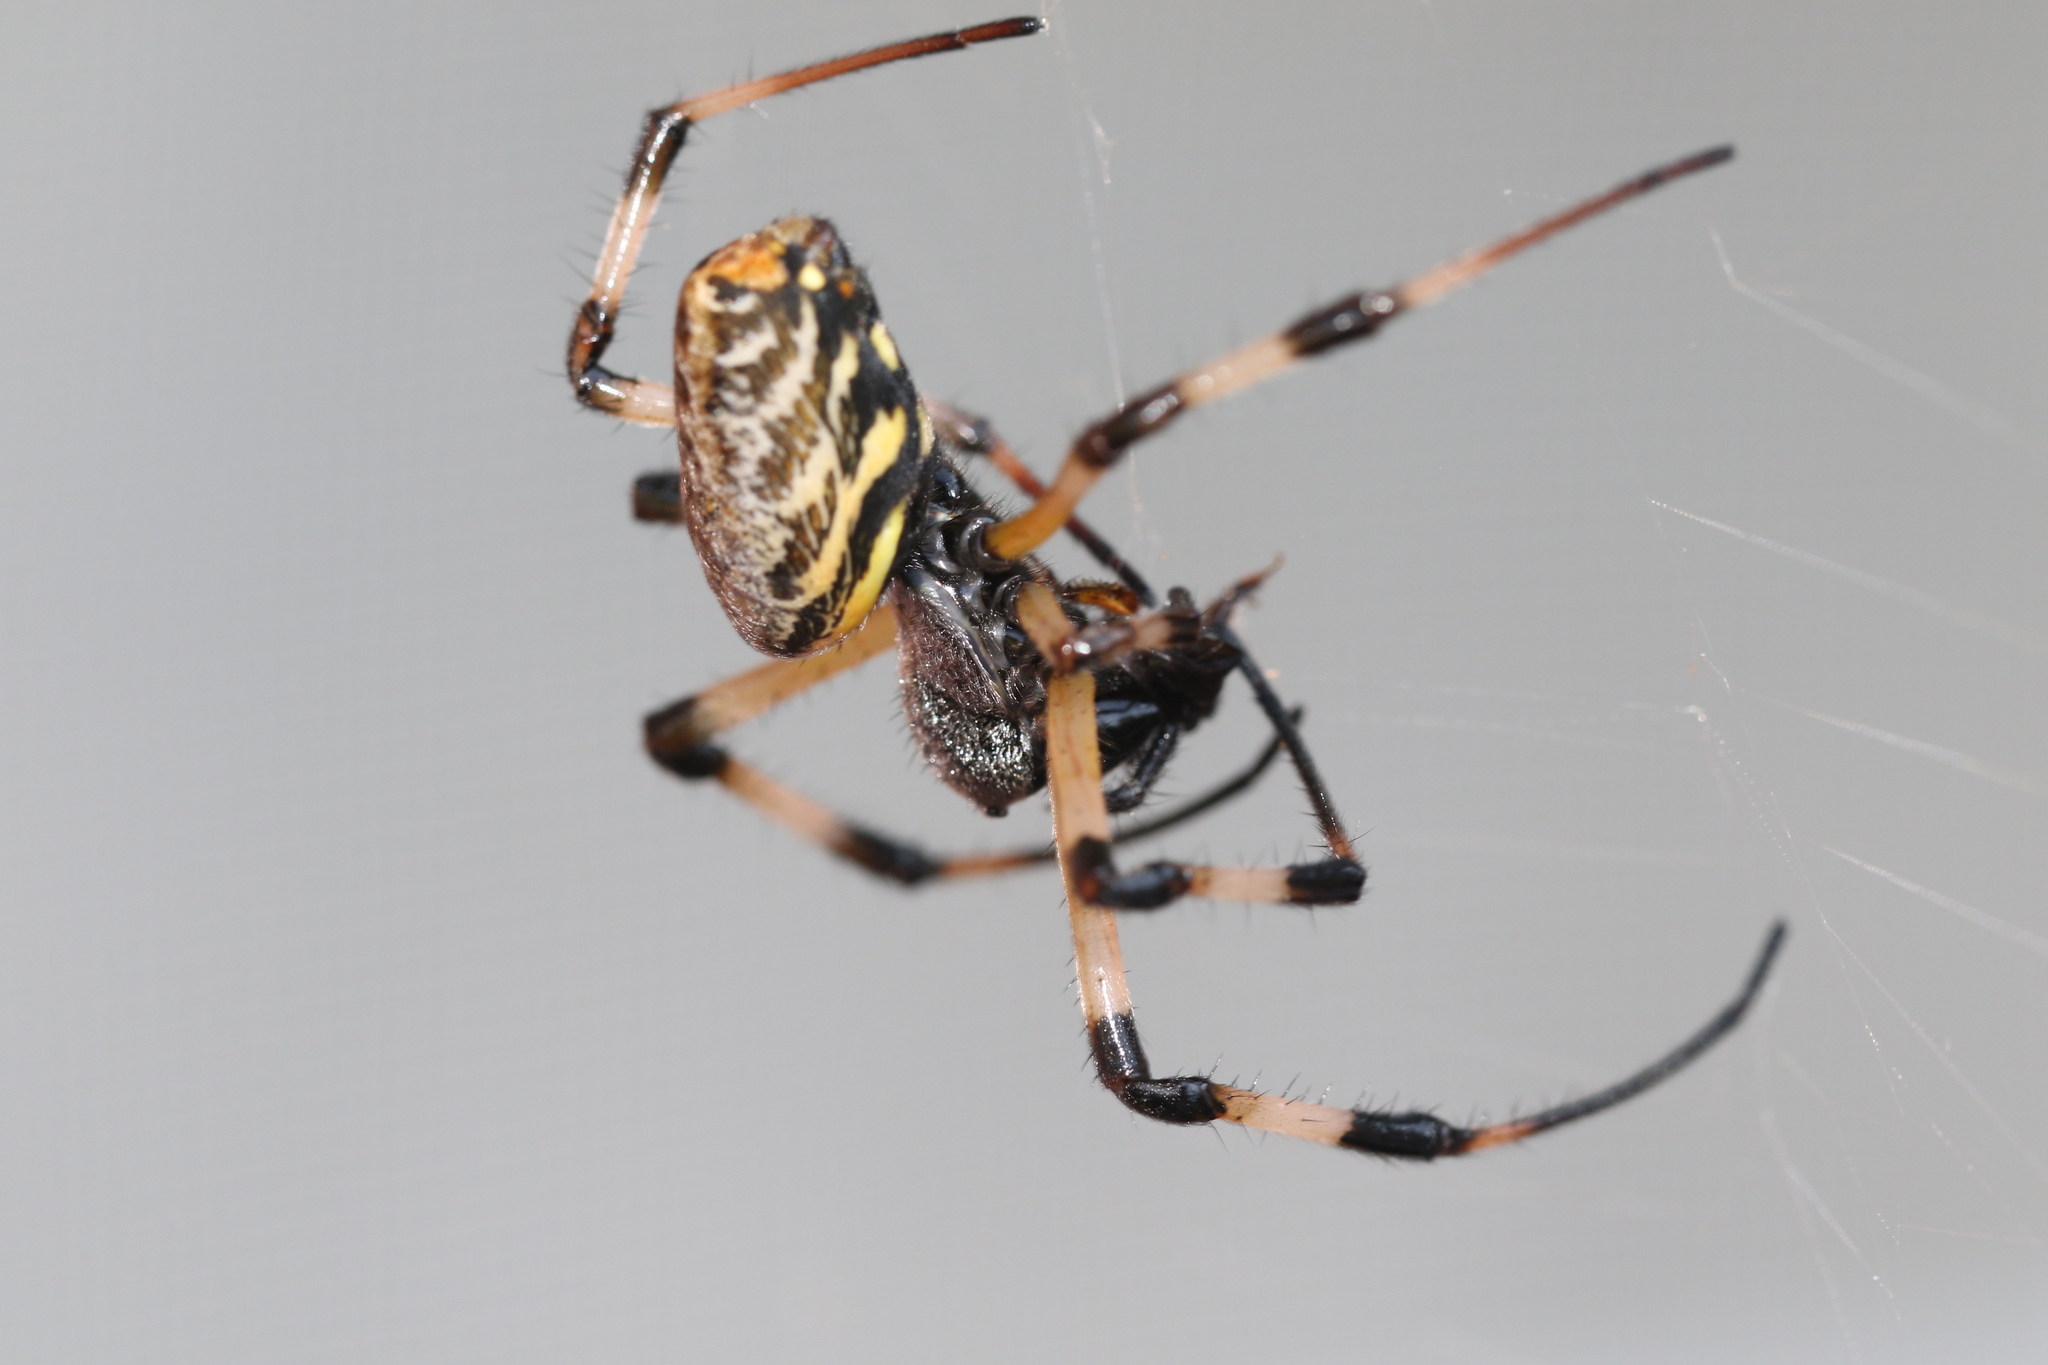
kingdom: Animalia
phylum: Arthropoda
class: Arachnida
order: Araneae
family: Araneidae
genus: Nephilingis
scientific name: Nephilingis cruentata
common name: African hermit spider
